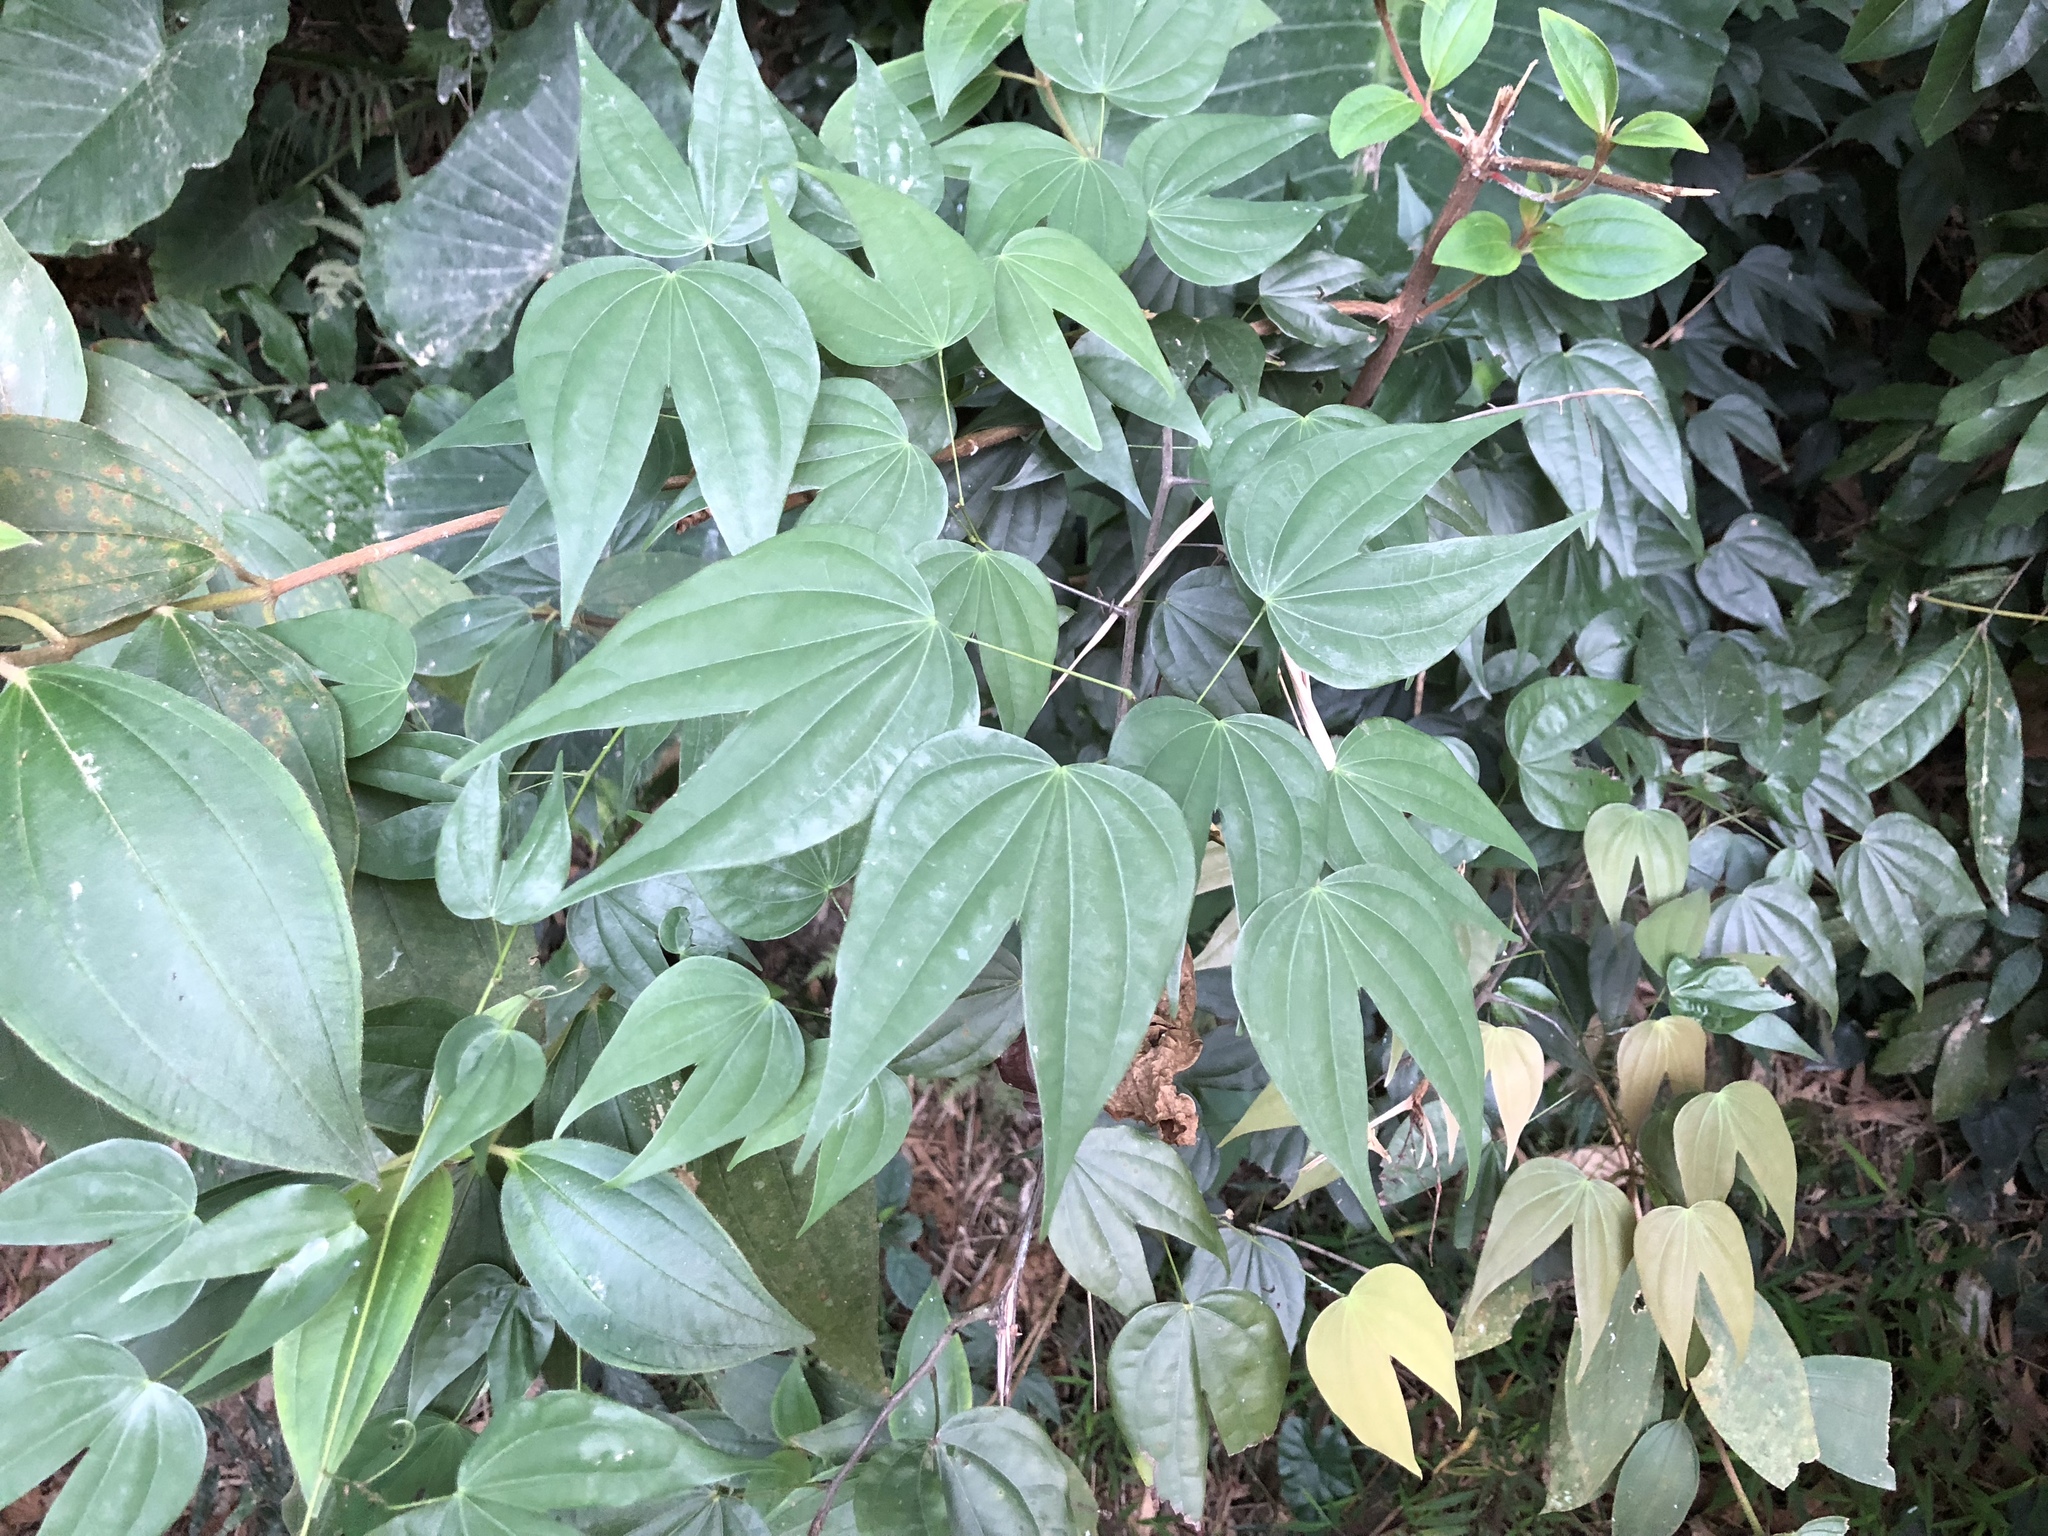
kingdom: Plantae
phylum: Tracheophyta
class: Magnoliopsida
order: Fabales
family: Fabaceae
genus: Phanera
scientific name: Phanera championii
